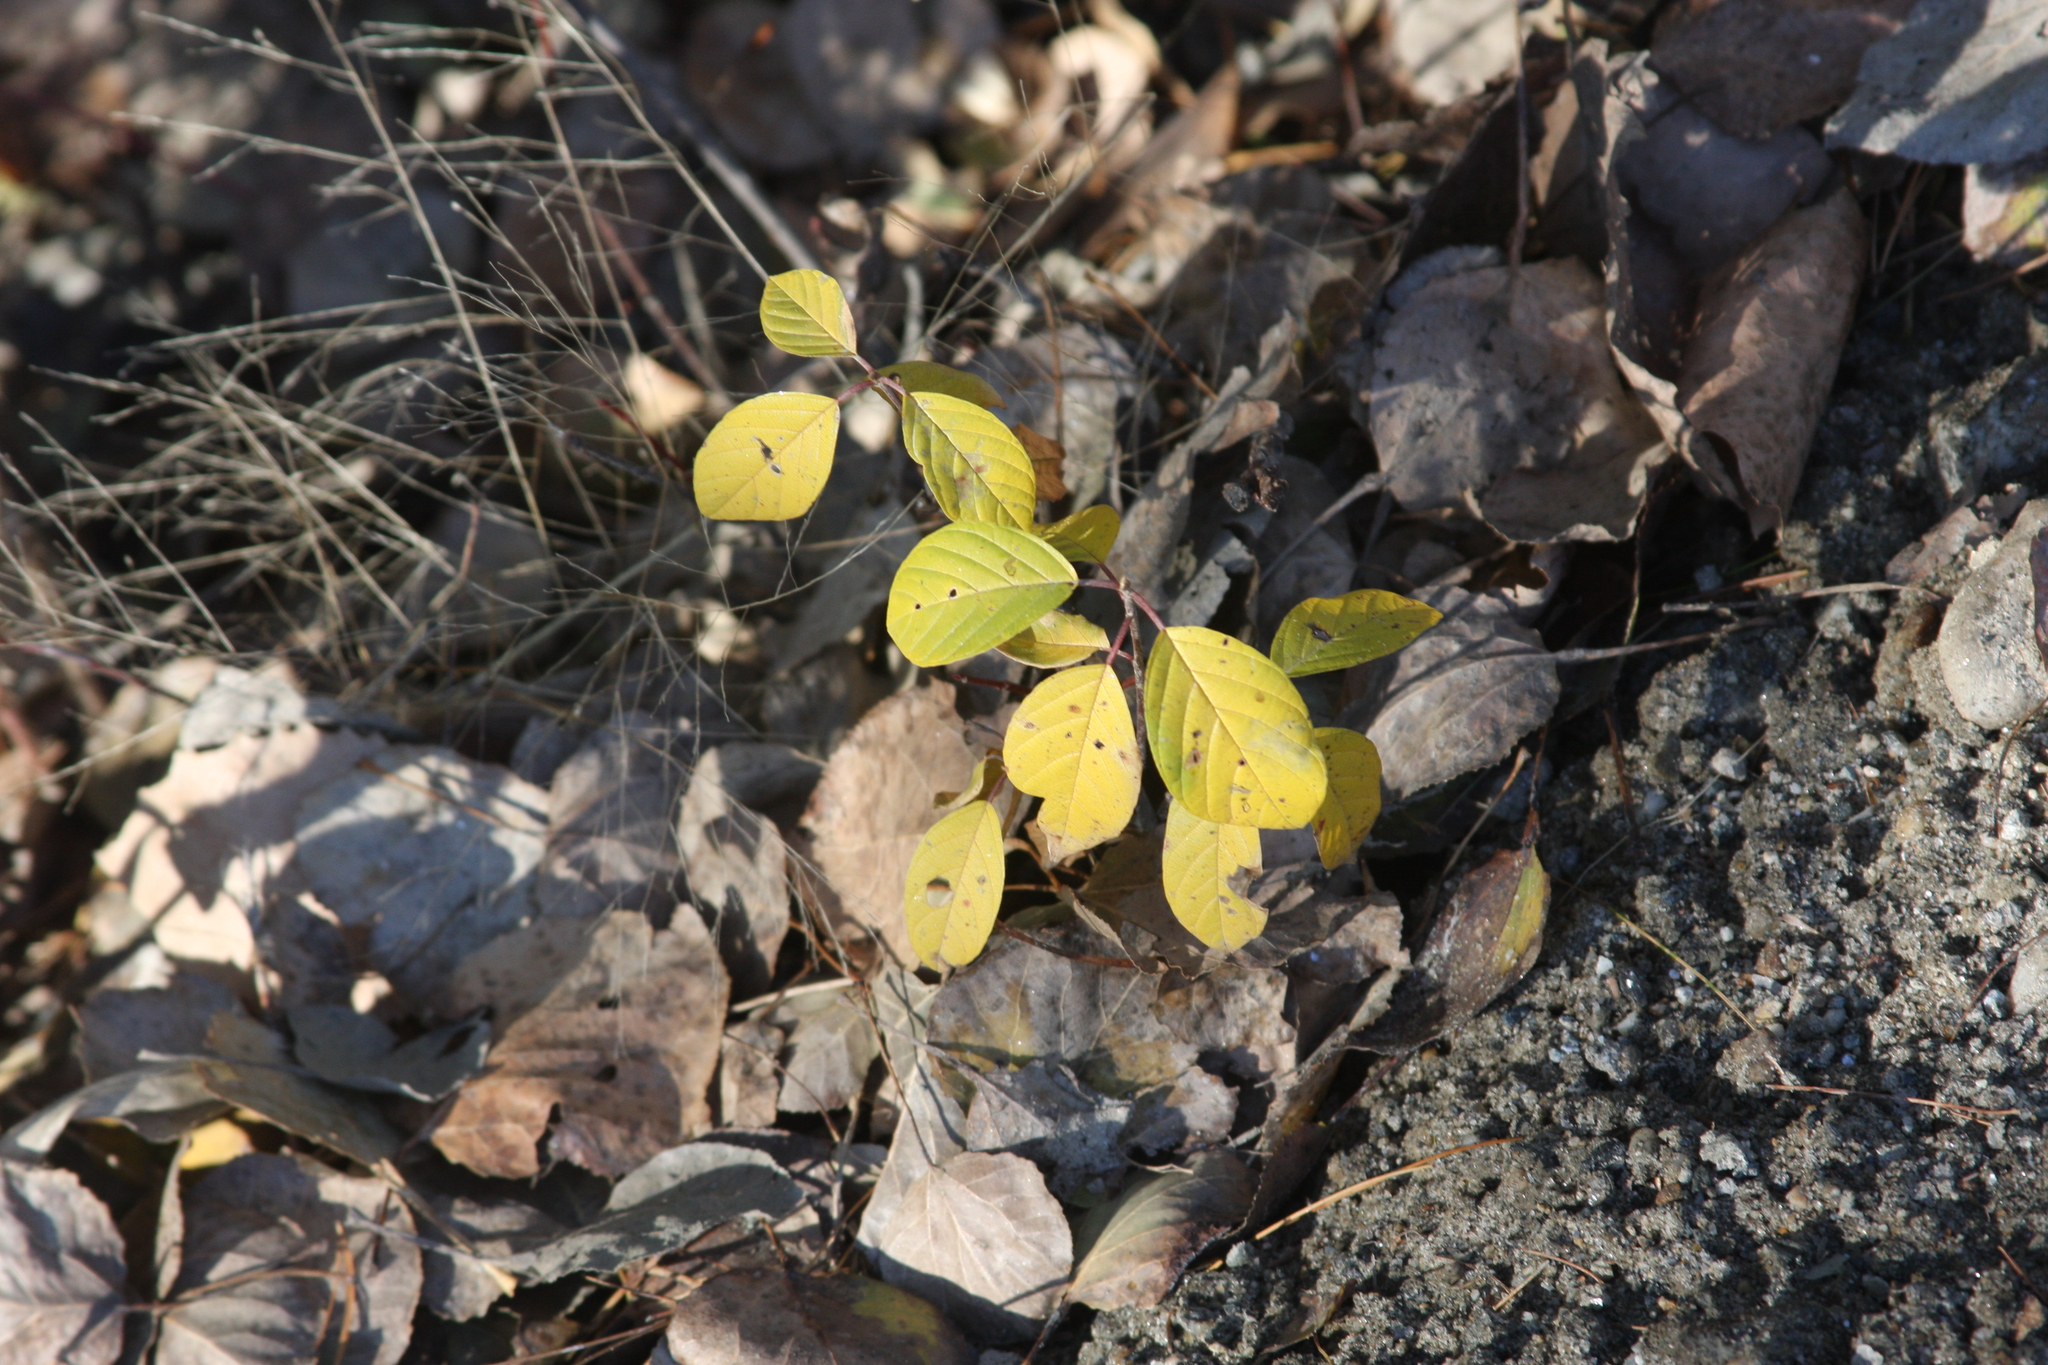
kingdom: Plantae
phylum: Tracheophyta
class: Magnoliopsida
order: Rosales
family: Rhamnaceae
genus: Frangula
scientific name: Frangula alnus
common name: Alder buckthorn
